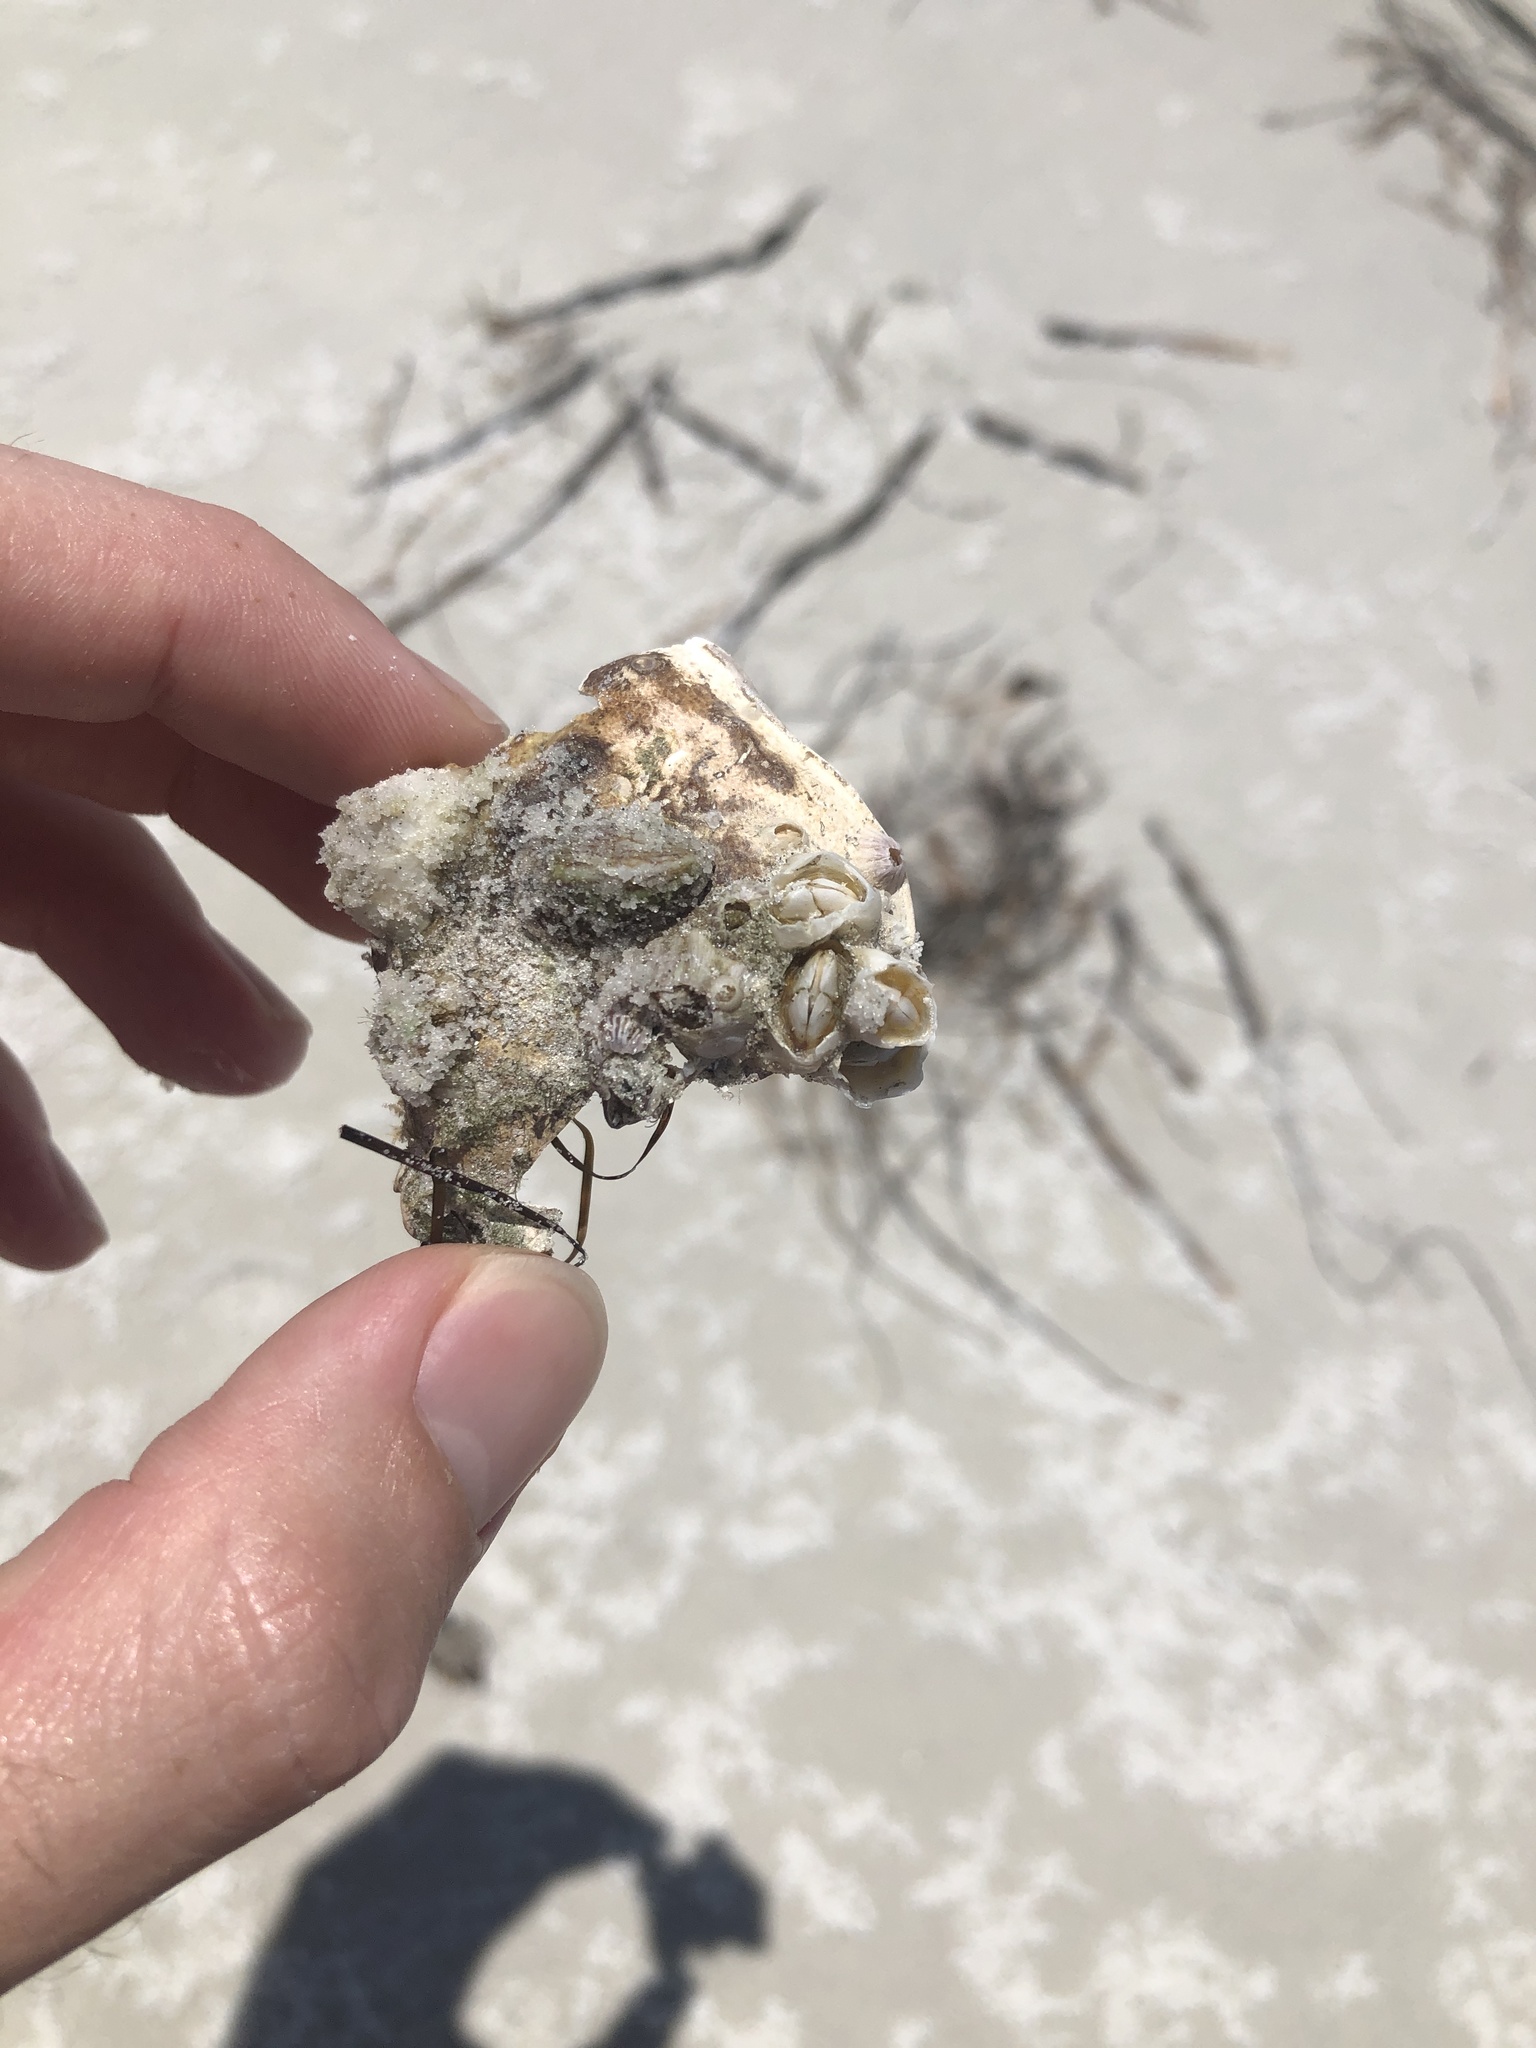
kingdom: Animalia
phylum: Arthropoda
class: Maxillopoda
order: Sessilia
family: Chelonibiidae
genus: Chelonibia
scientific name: Chelonibia testudinaria
